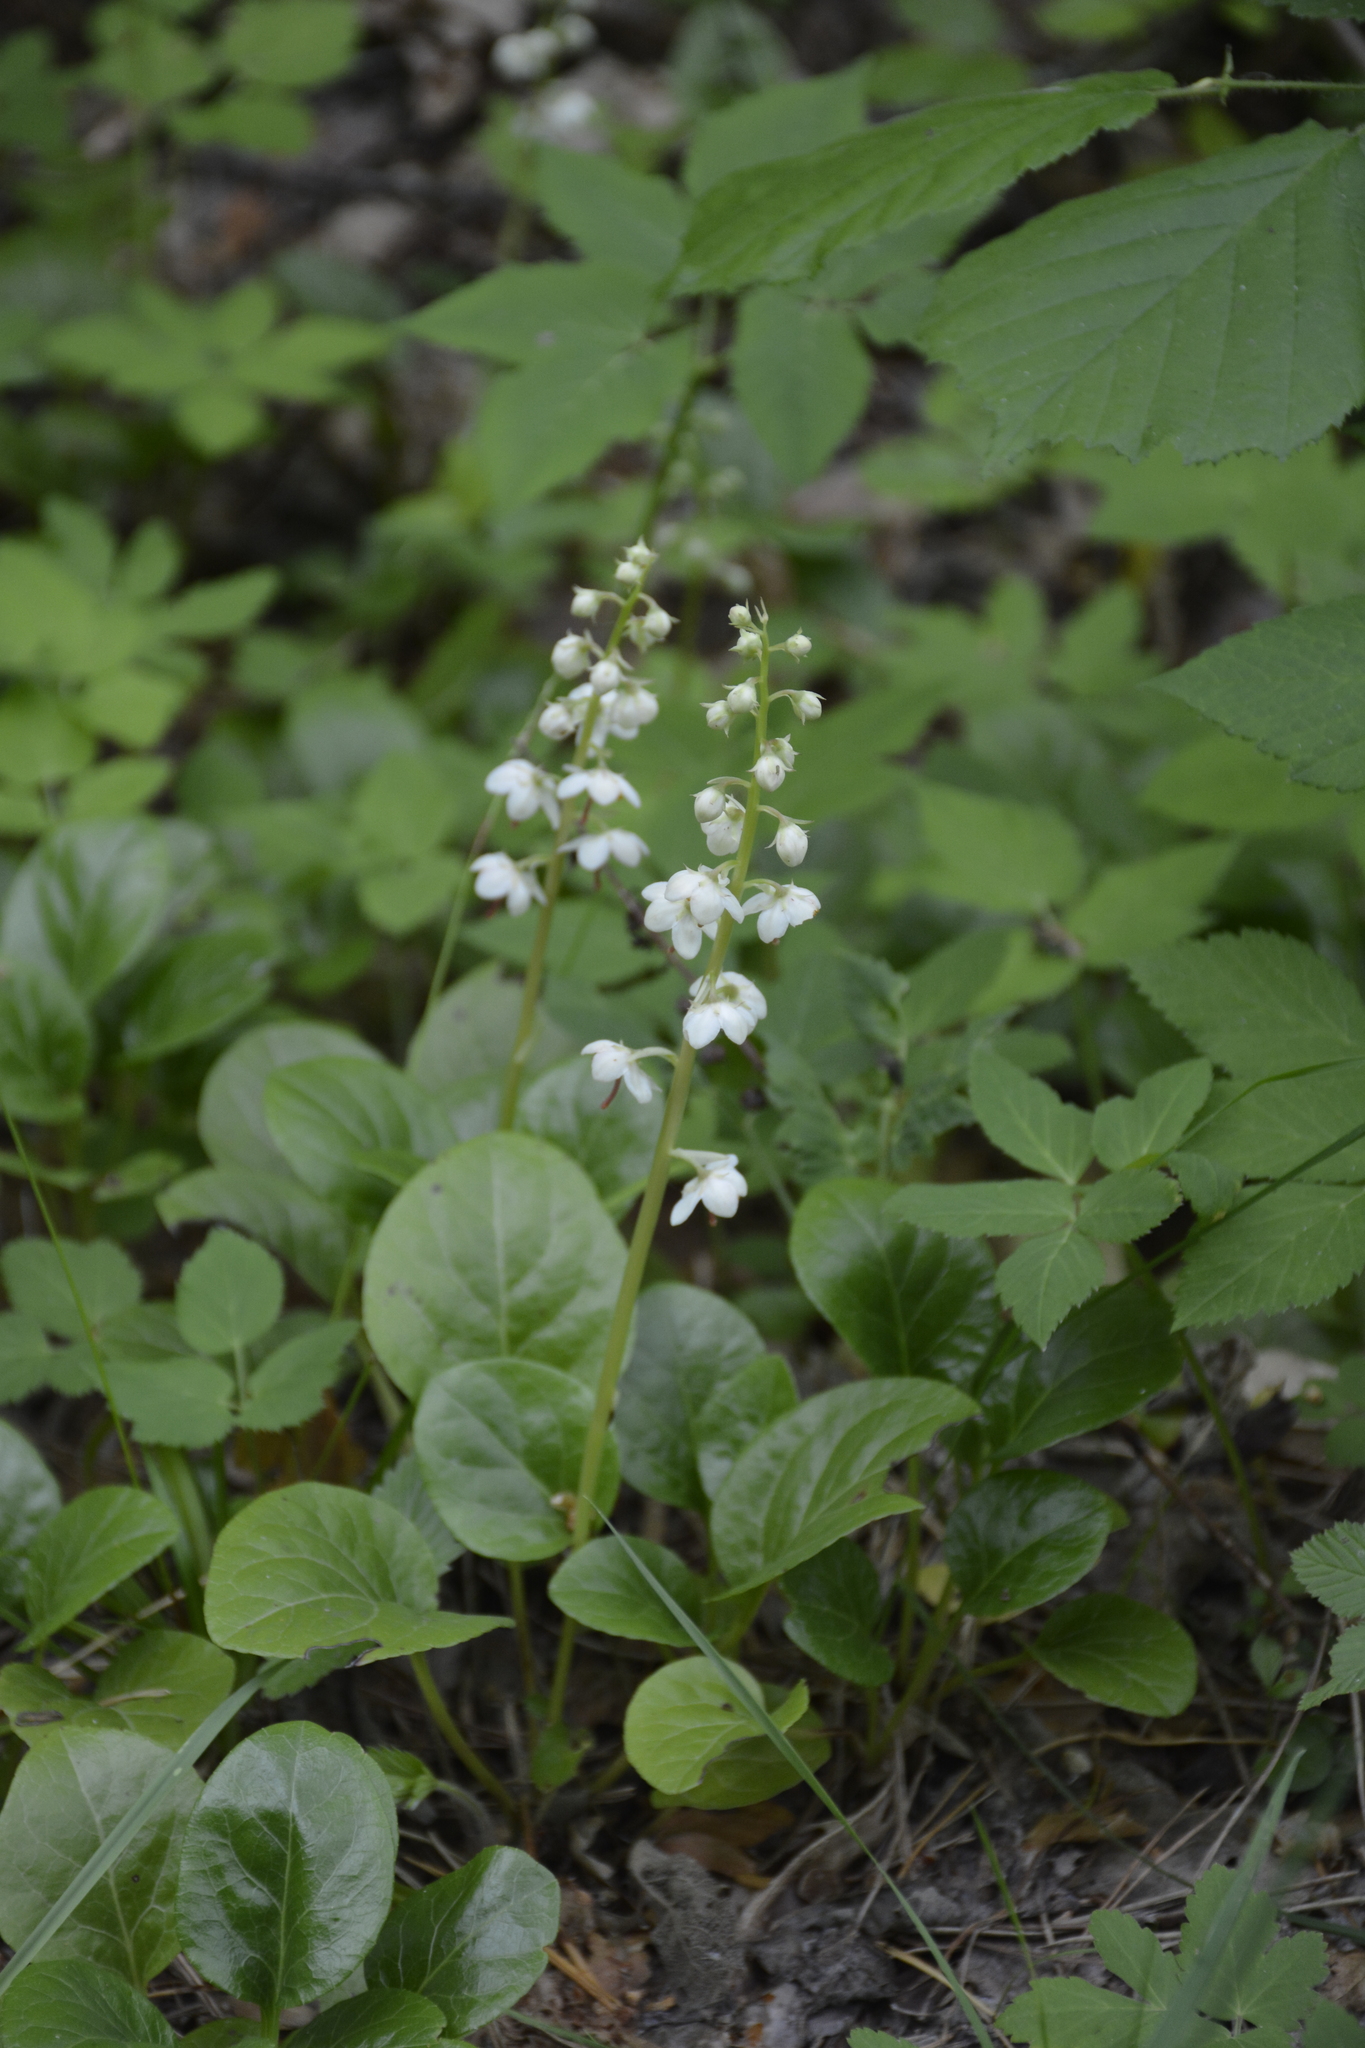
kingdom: Plantae
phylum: Tracheophyta
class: Magnoliopsida
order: Ericales
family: Ericaceae
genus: Pyrola
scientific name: Pyrola rotundifolia
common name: Round-leaved wintergreen
